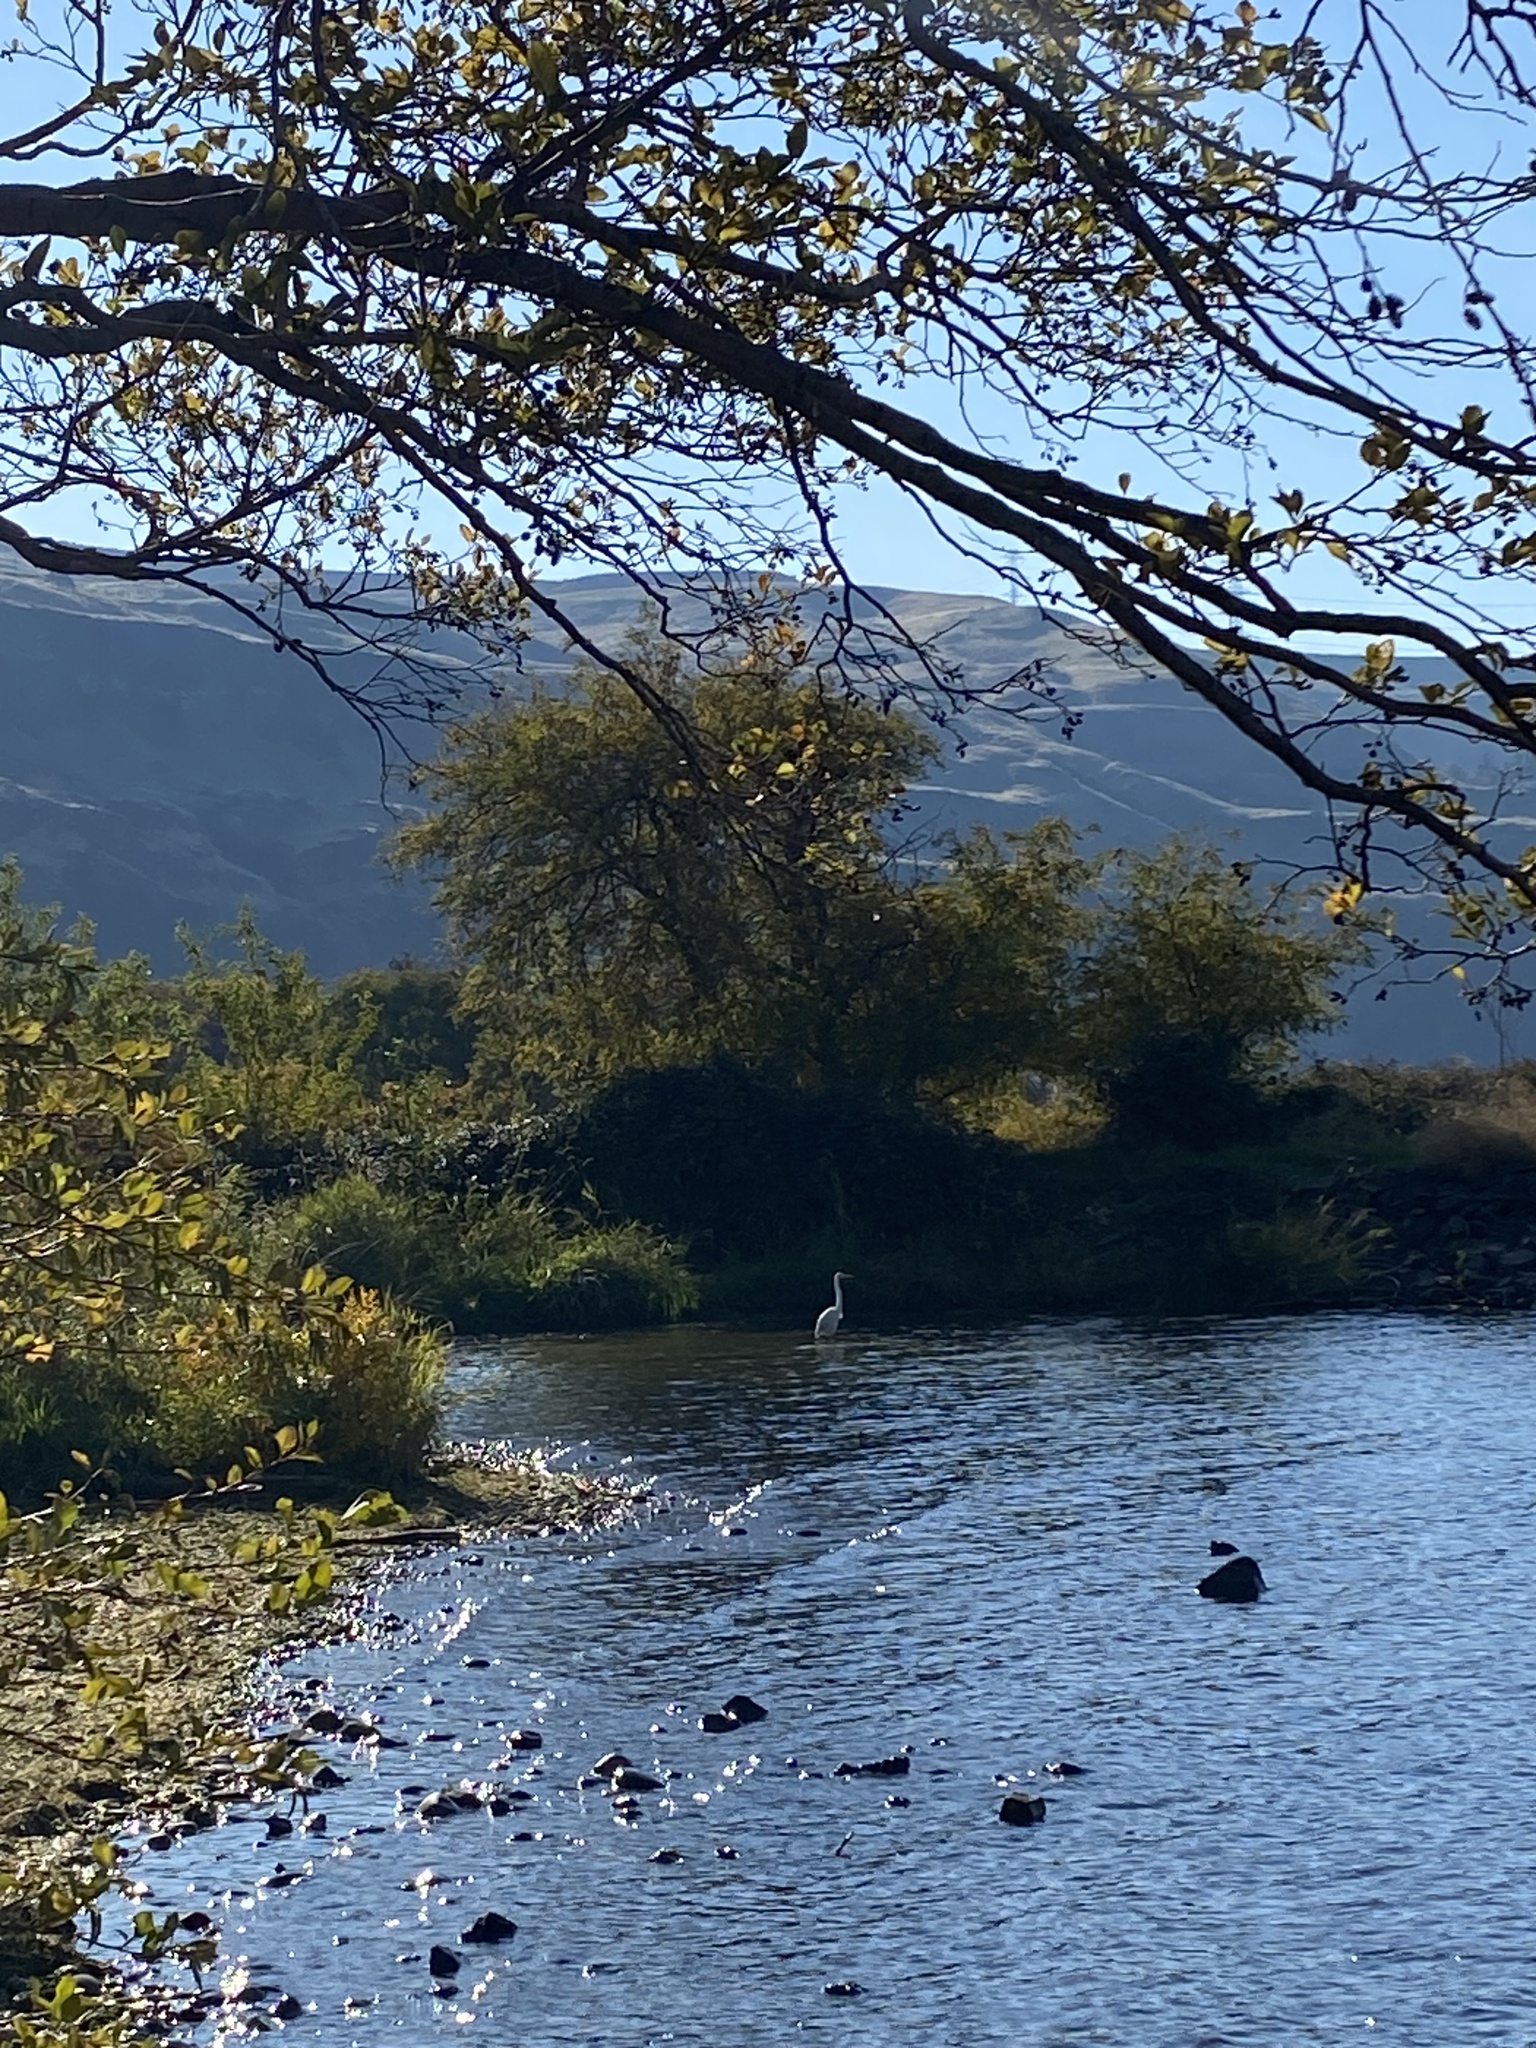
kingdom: Animalia
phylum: Chordata
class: Aves
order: Pelecaniformes
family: Ardeidae
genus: Ardea
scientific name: Ardea herodias
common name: Great blue heron
